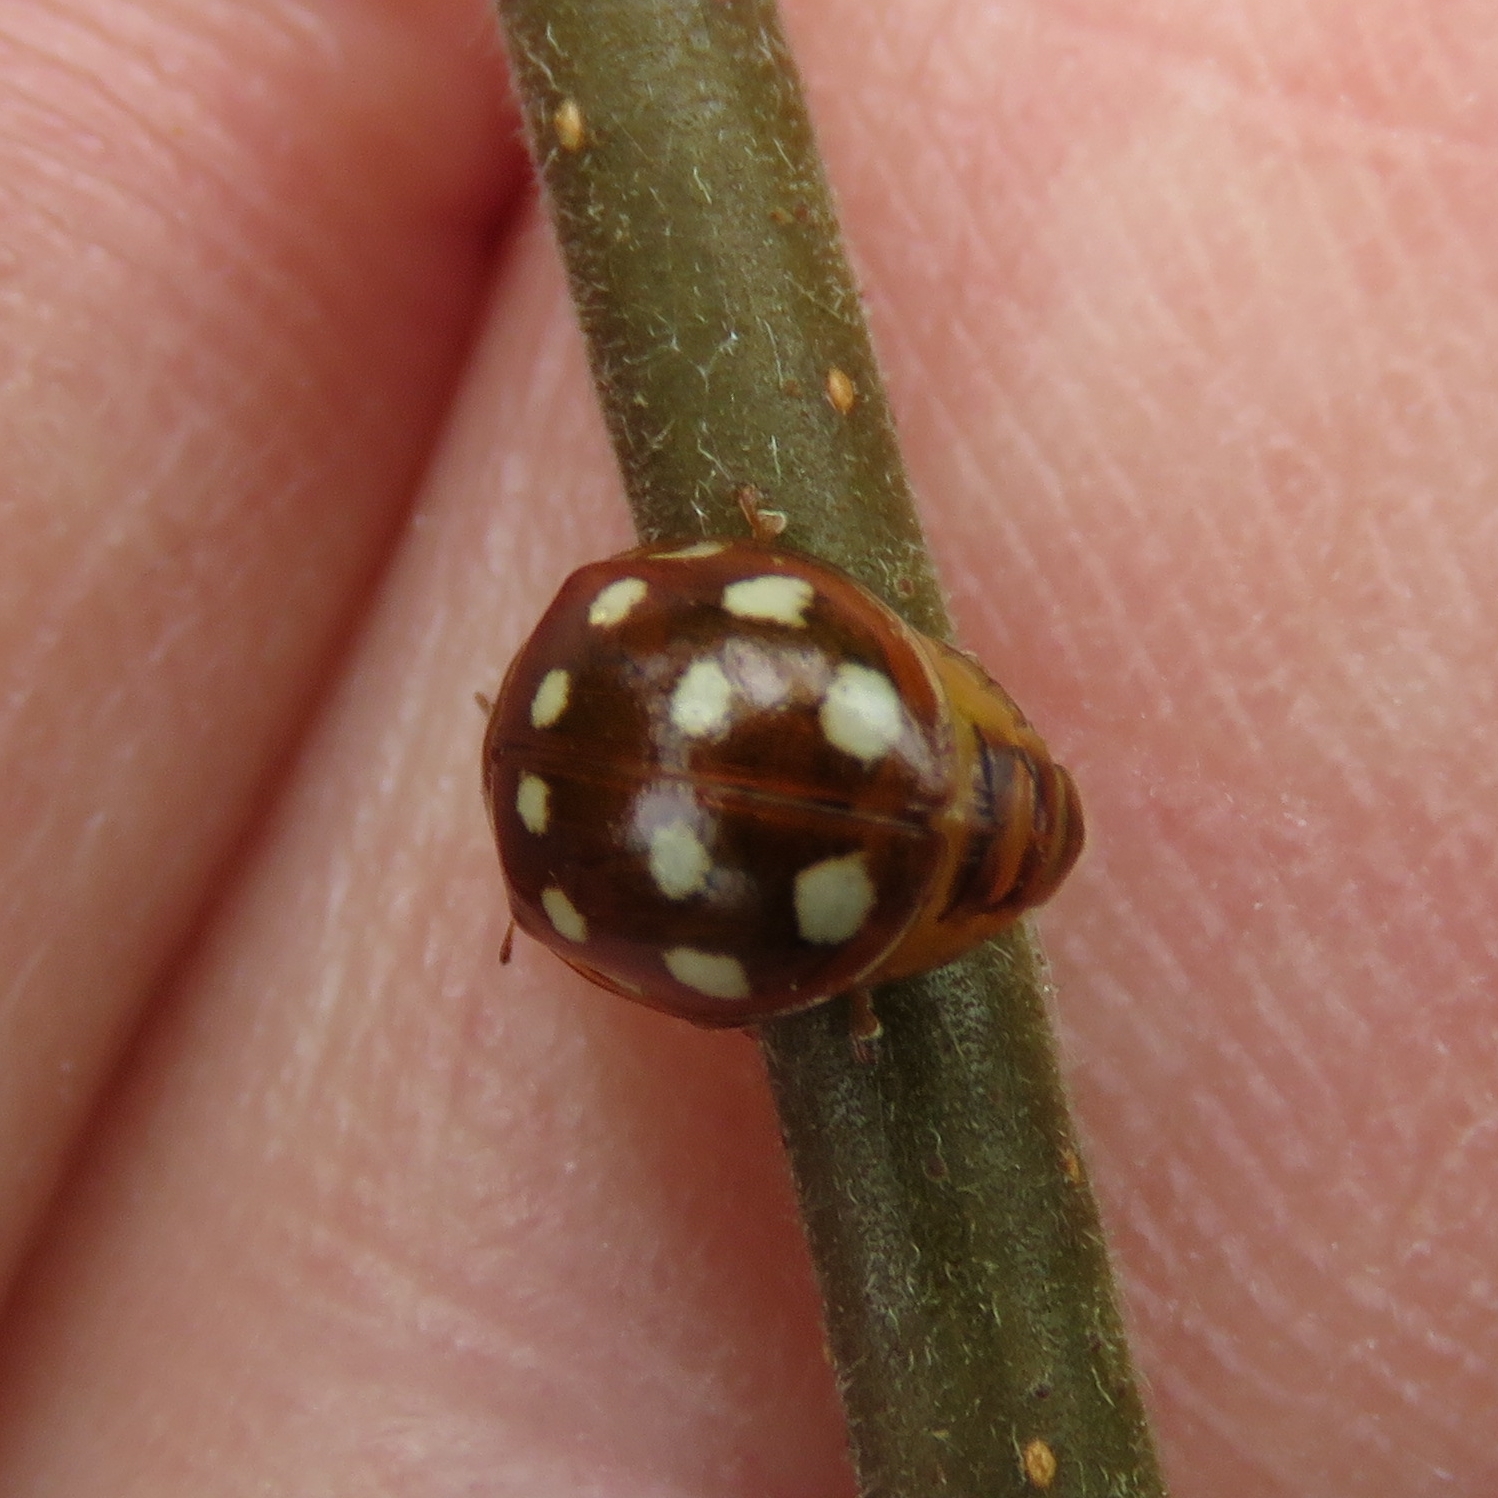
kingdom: Animalia
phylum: Arthropoda
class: Insecta
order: Coleoptera
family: Coccinellidae
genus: Calvia
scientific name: Calvia quatuordecimguttata
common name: Cream-spot ladybird
